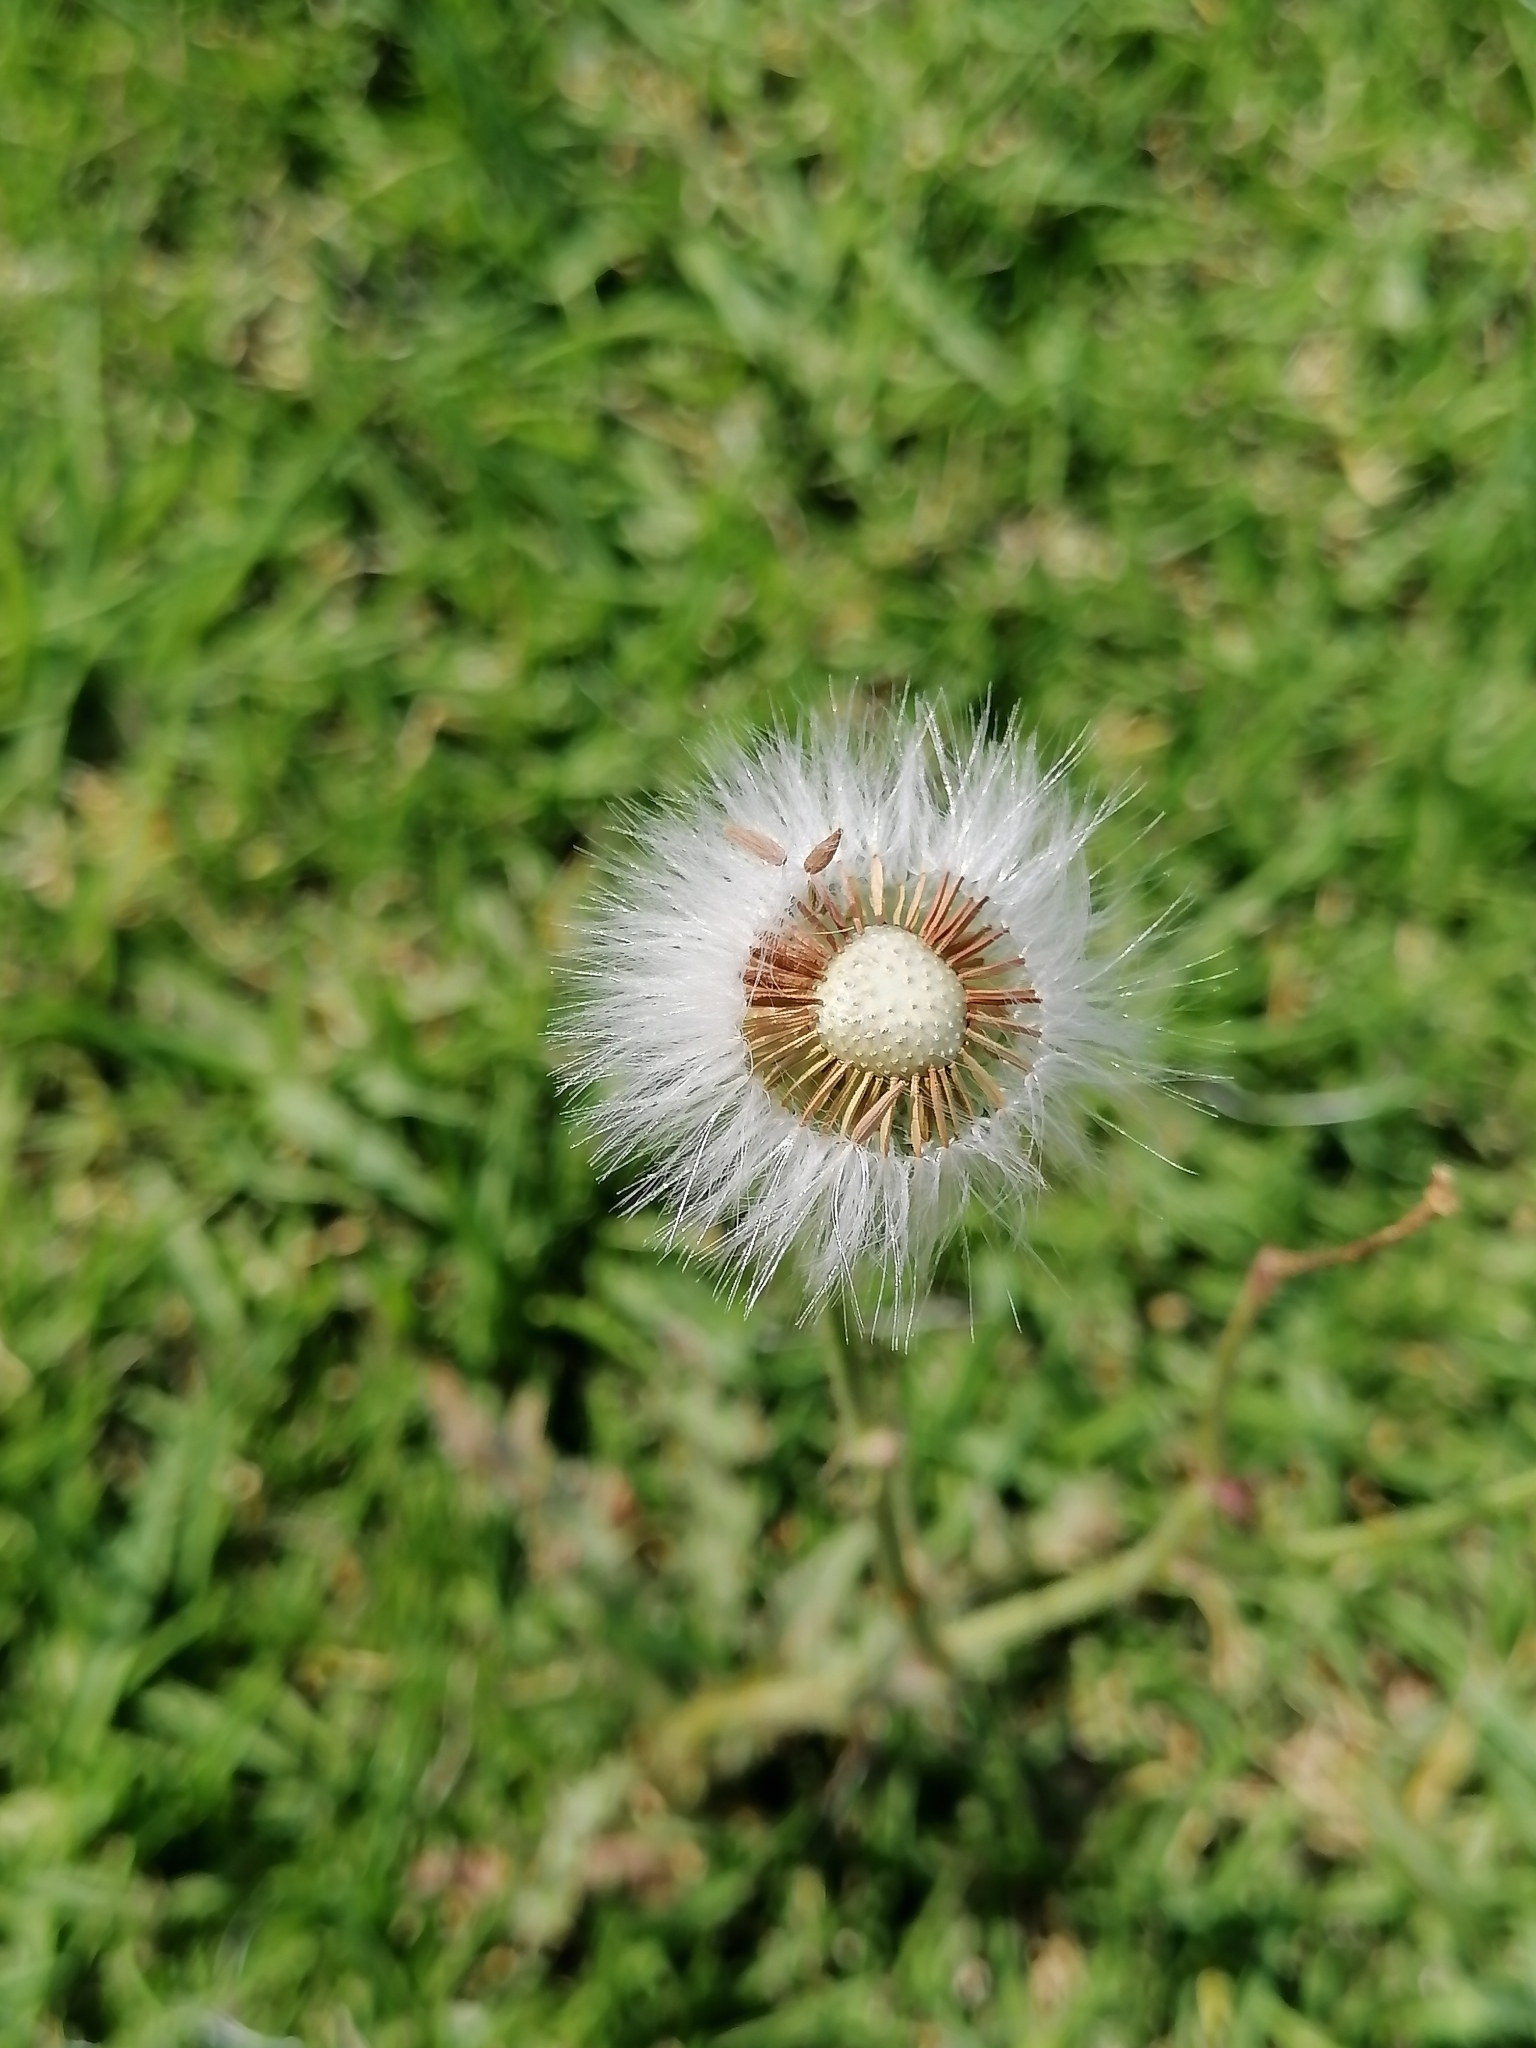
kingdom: Plantae
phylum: Tracheophyta
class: Magnoliopsida
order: Asterales
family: Asteraceae
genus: Sonchus
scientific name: Sonchus oleraceus
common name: Common sowthistle
